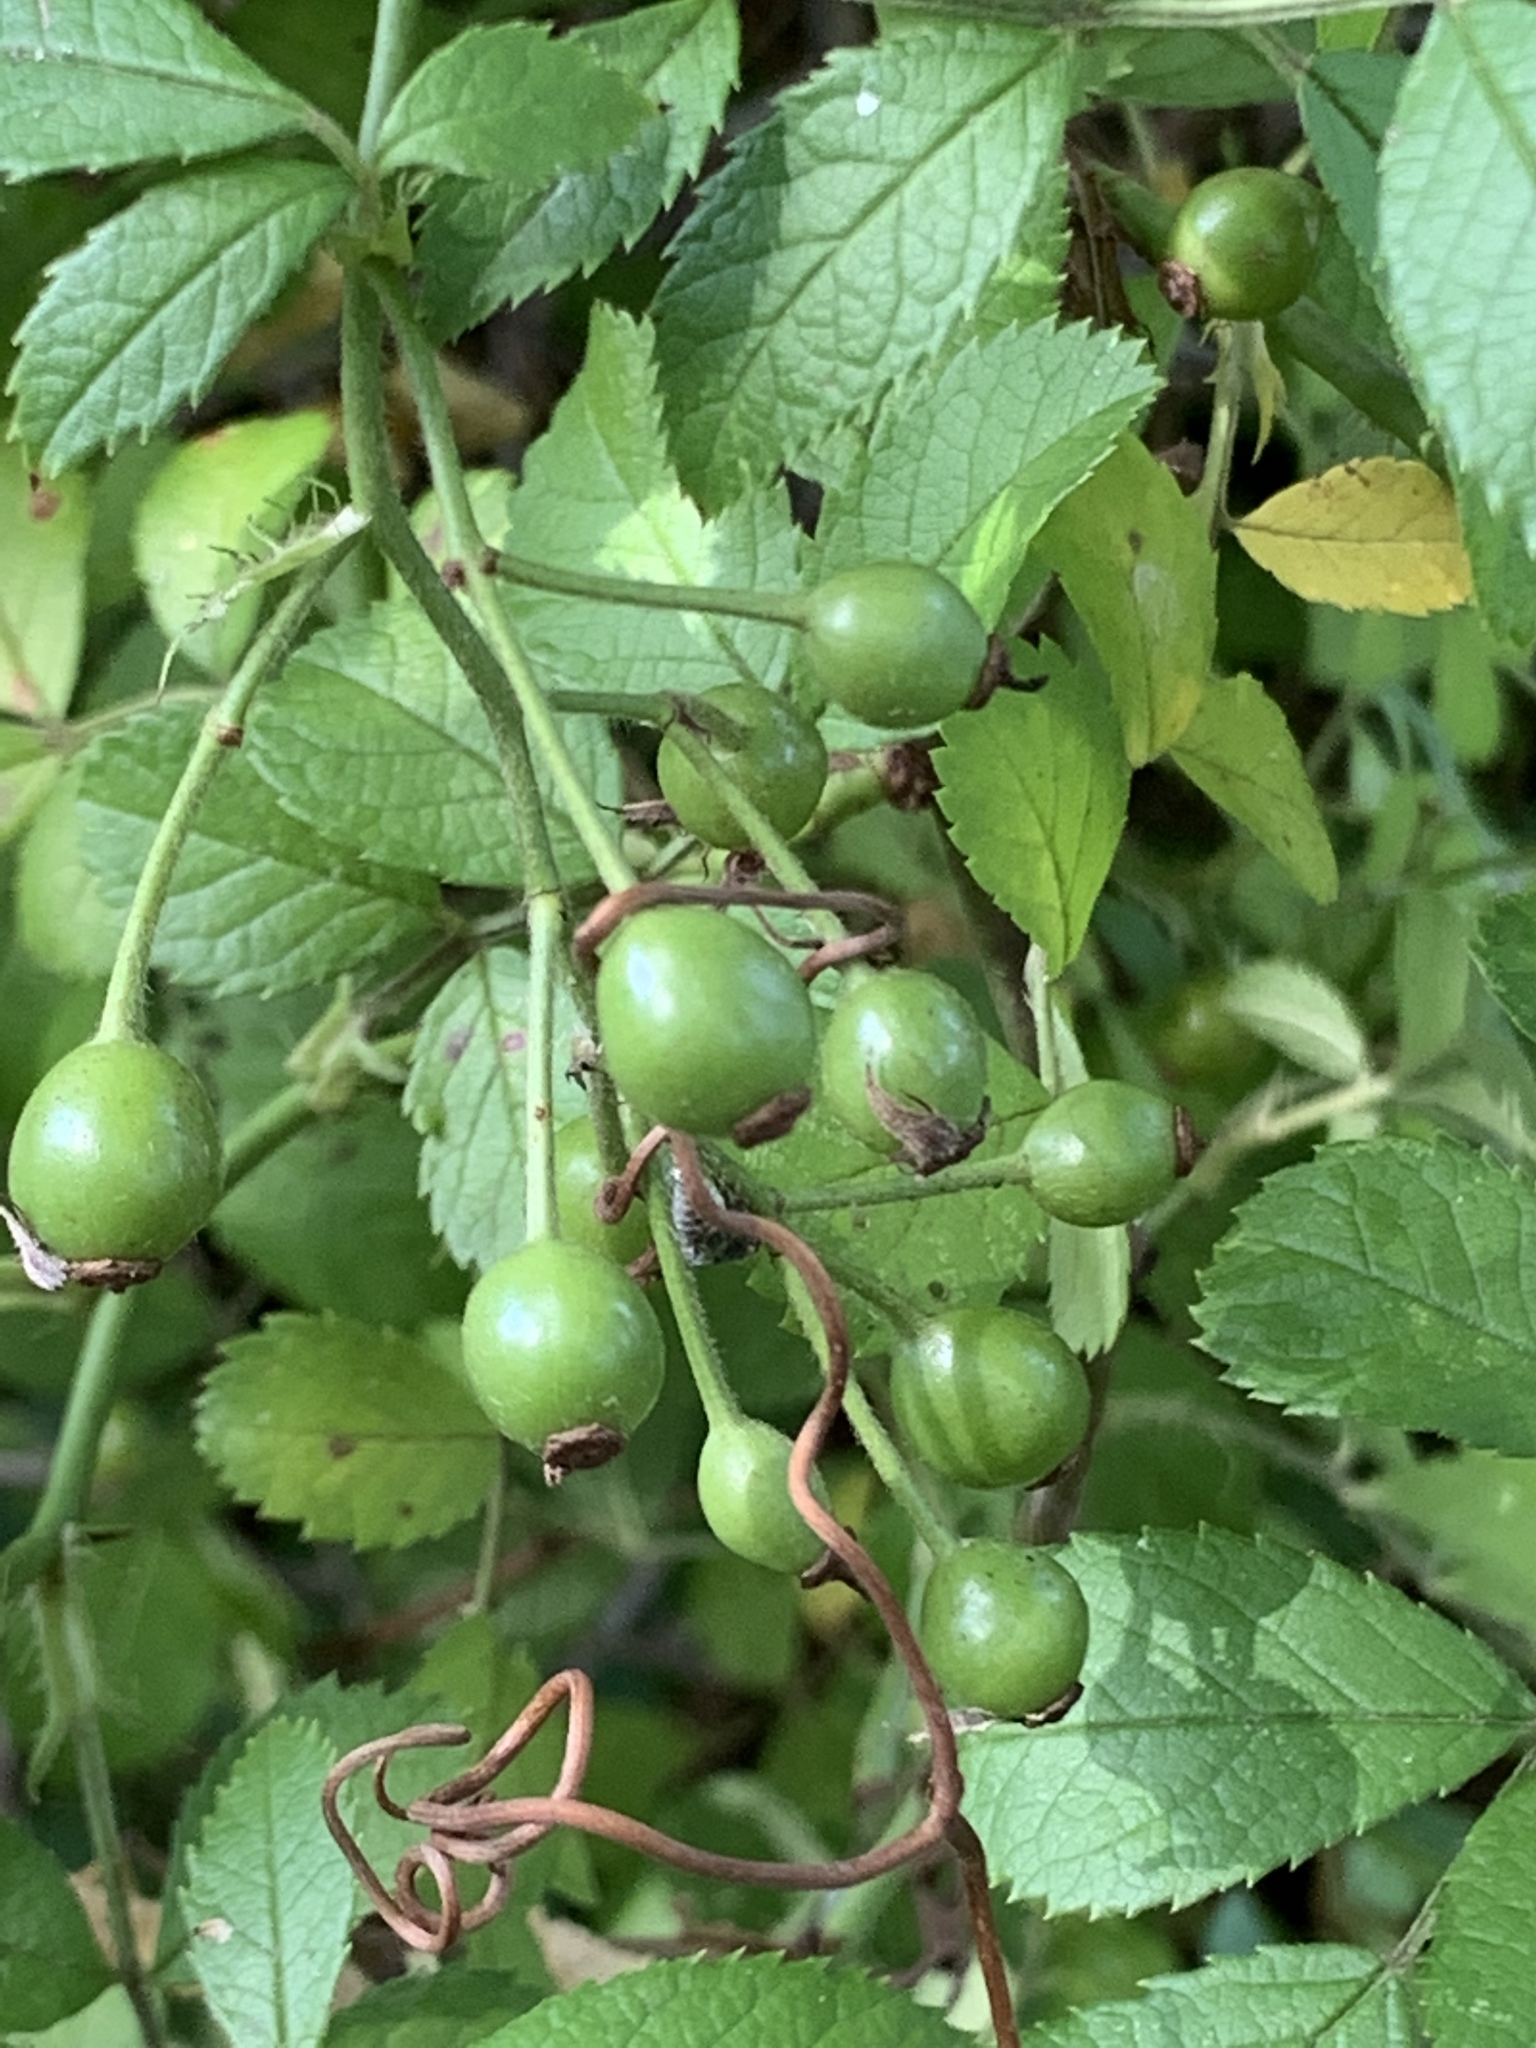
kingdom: Plantae
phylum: Tracheophyta
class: Magnoliopsida
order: Rosales
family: Rosaceae
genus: Rosa
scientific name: Rosa multiflora
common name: Multiflora rose
